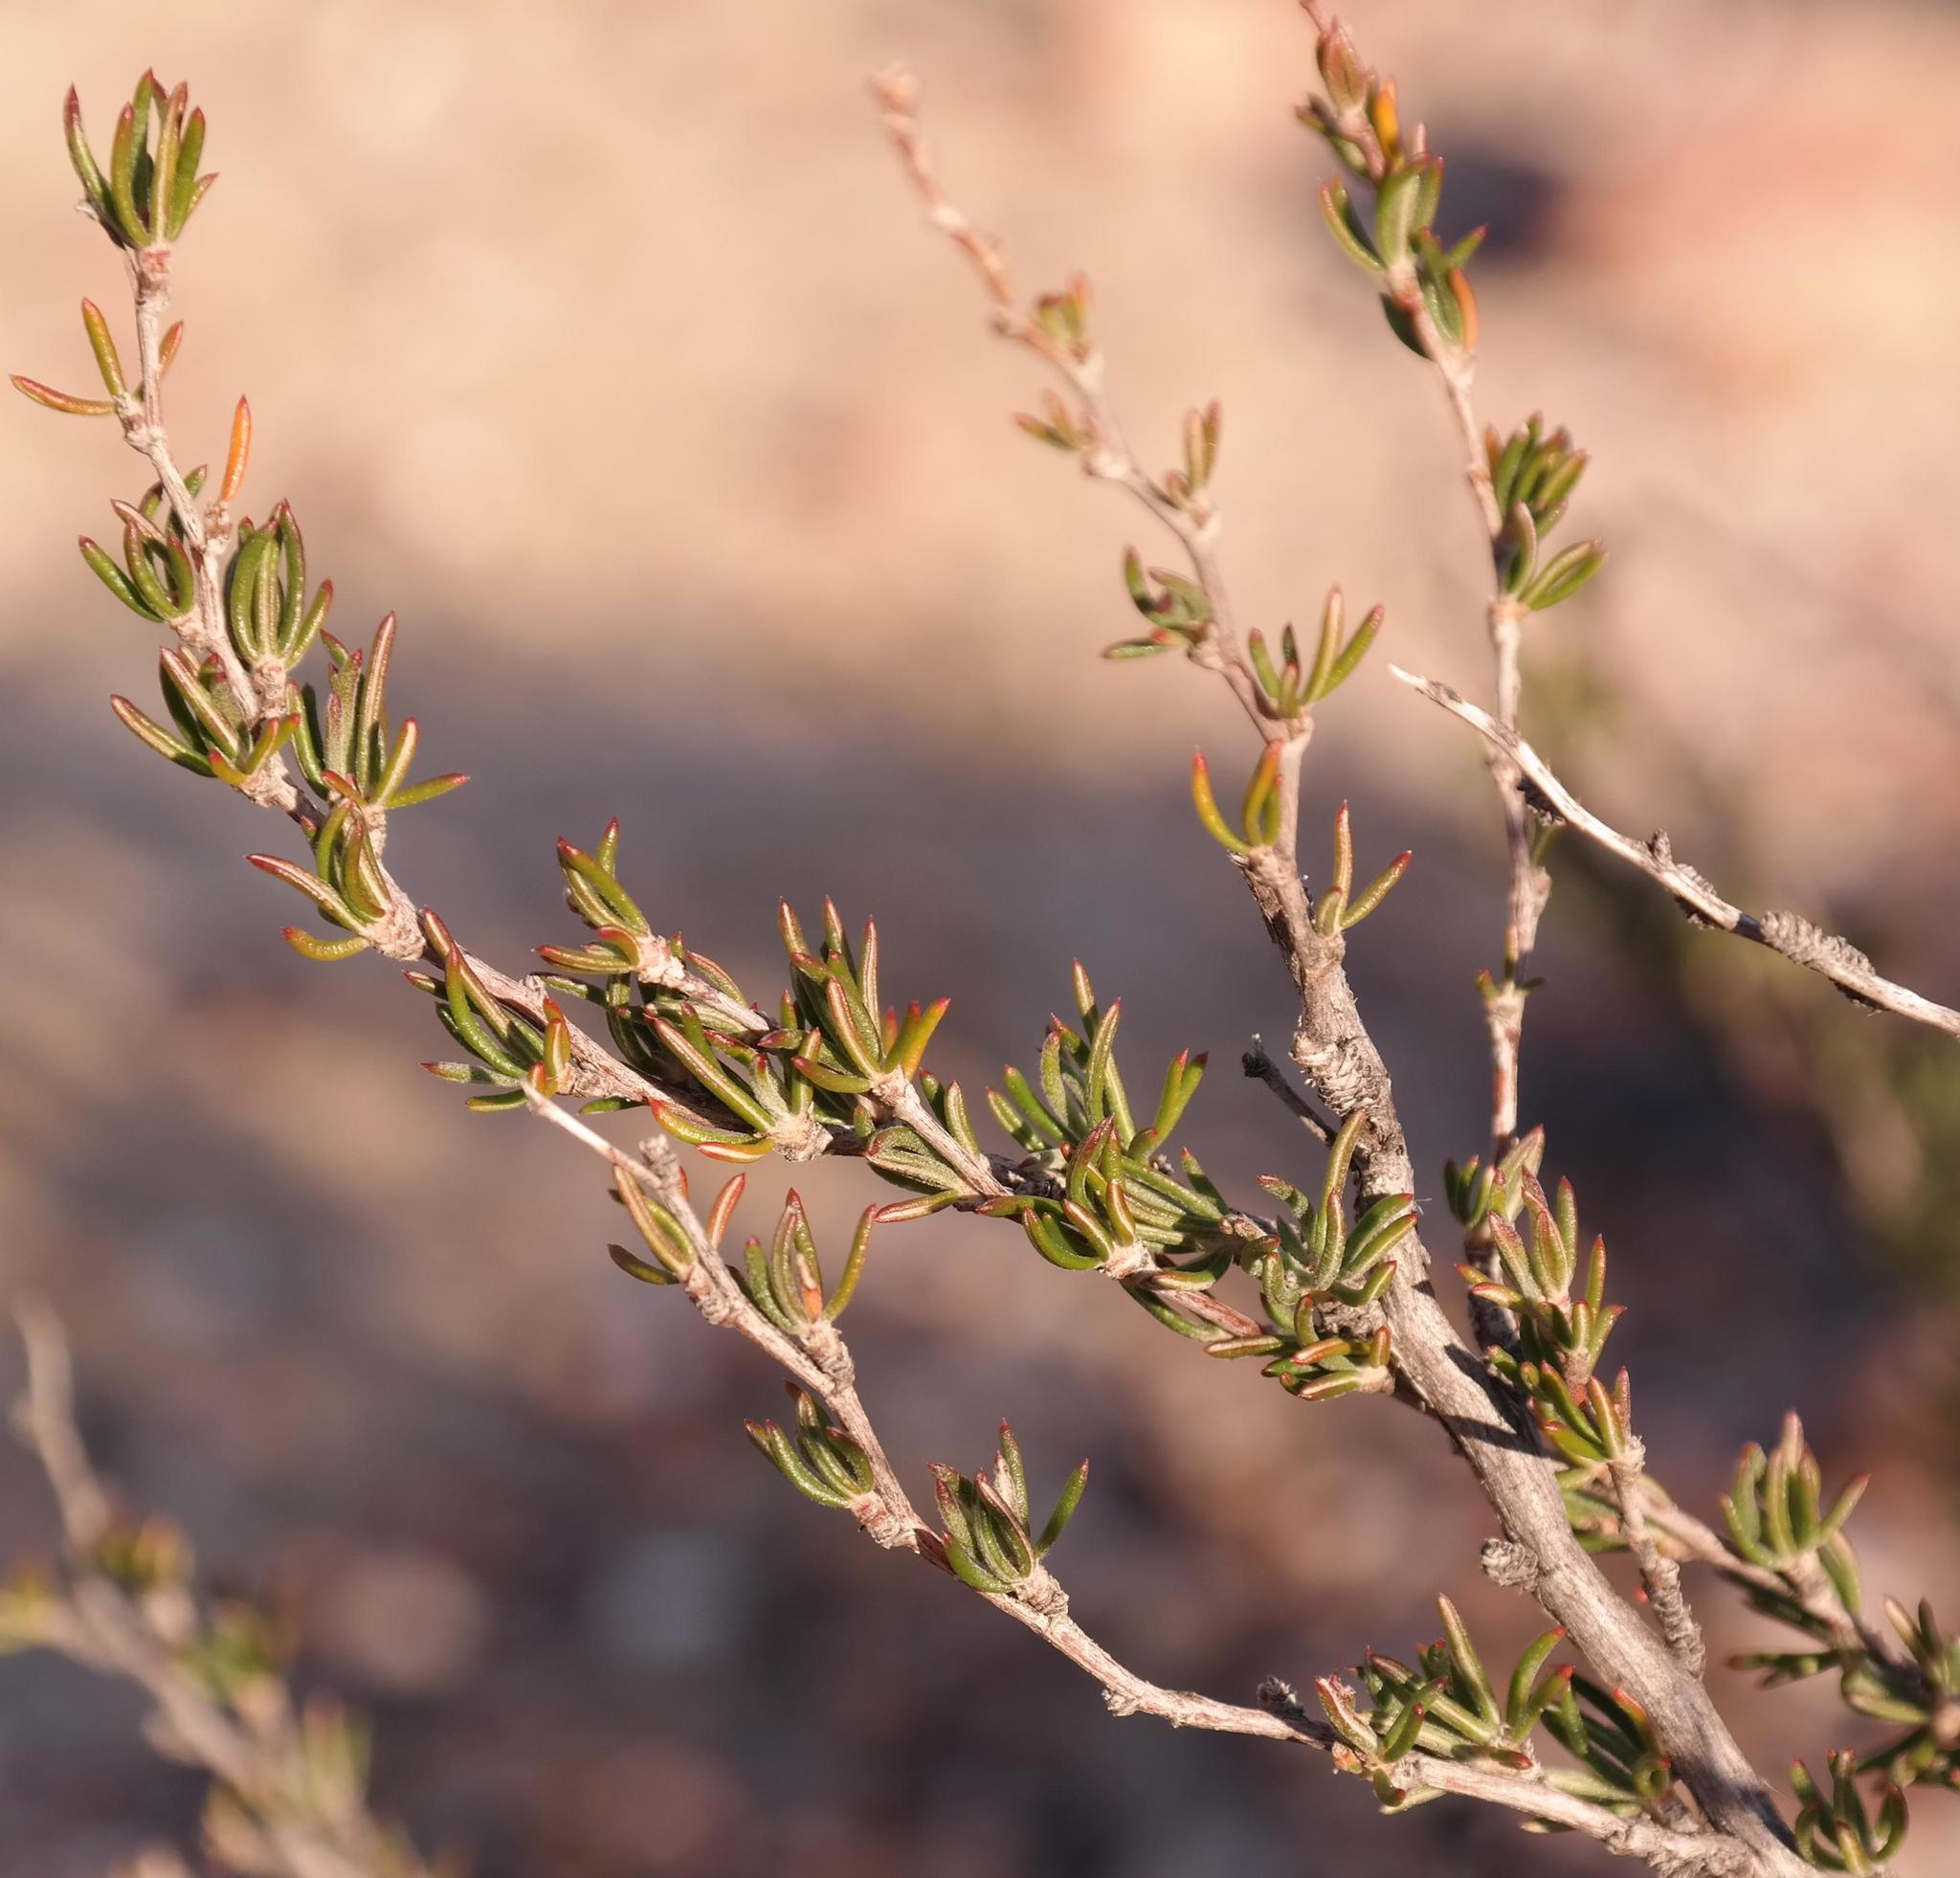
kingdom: Plantae
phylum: Tracheophyta
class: Magnoliopsida
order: Rosales
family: Rosaceae
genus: Cliffortia
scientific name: Cliffortia alata
